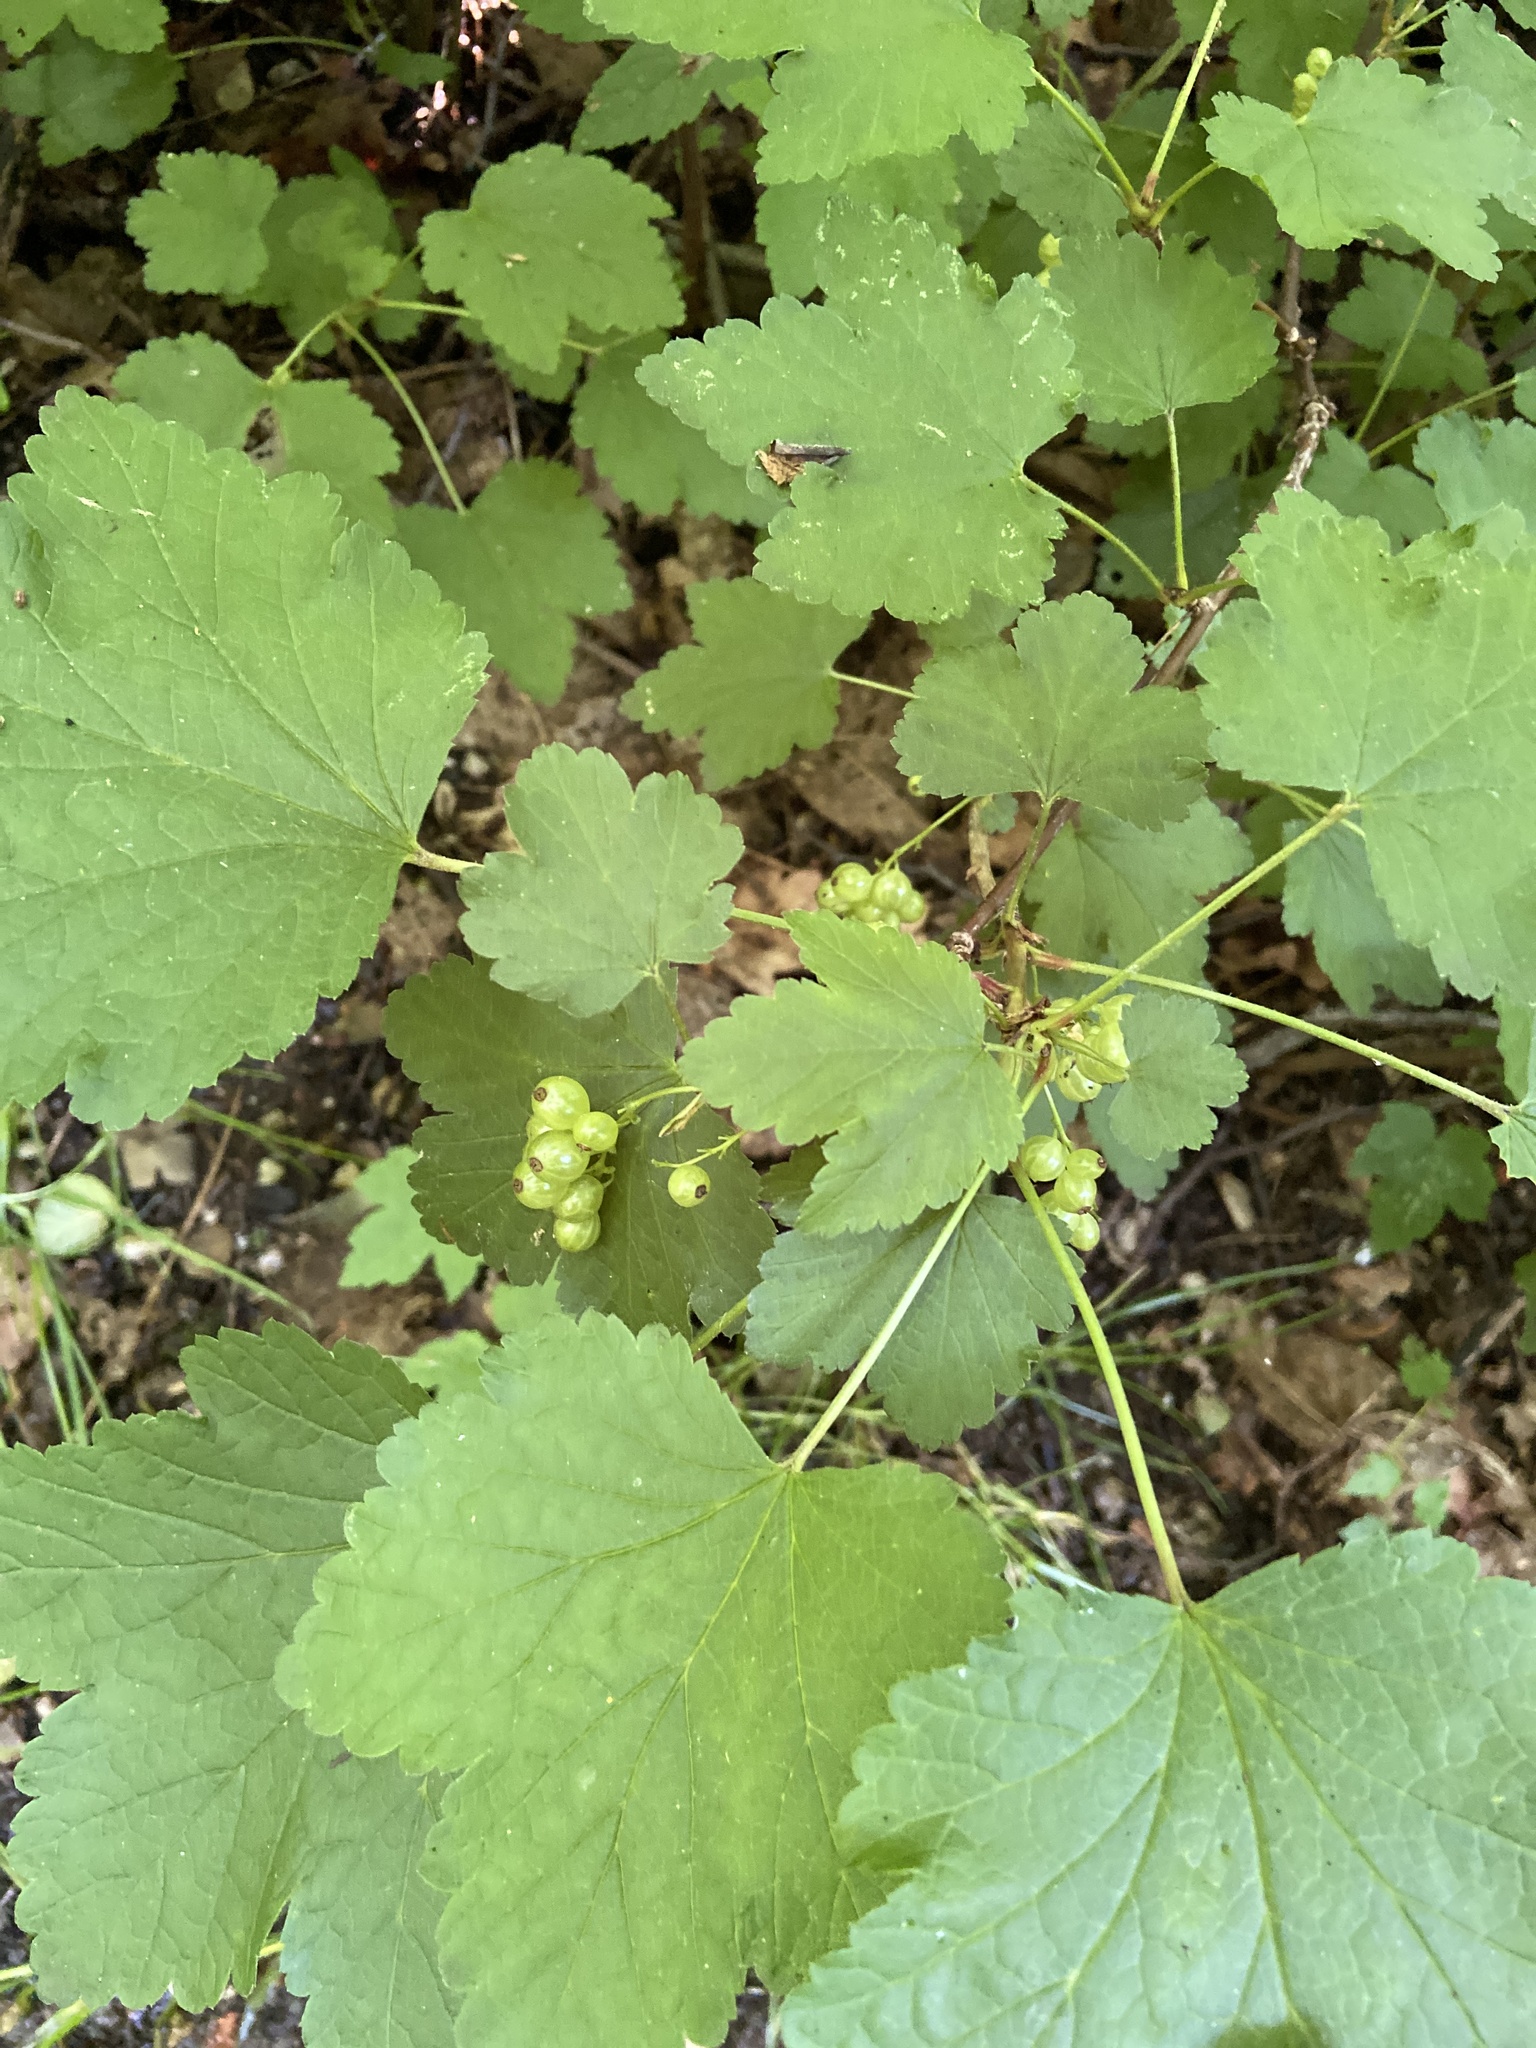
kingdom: Plantae
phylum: Tracheophyta
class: Magnoliopsida
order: Saxifragales
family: Grossulariaceae
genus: Ribes
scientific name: Ribes rubrum
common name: Red currant
